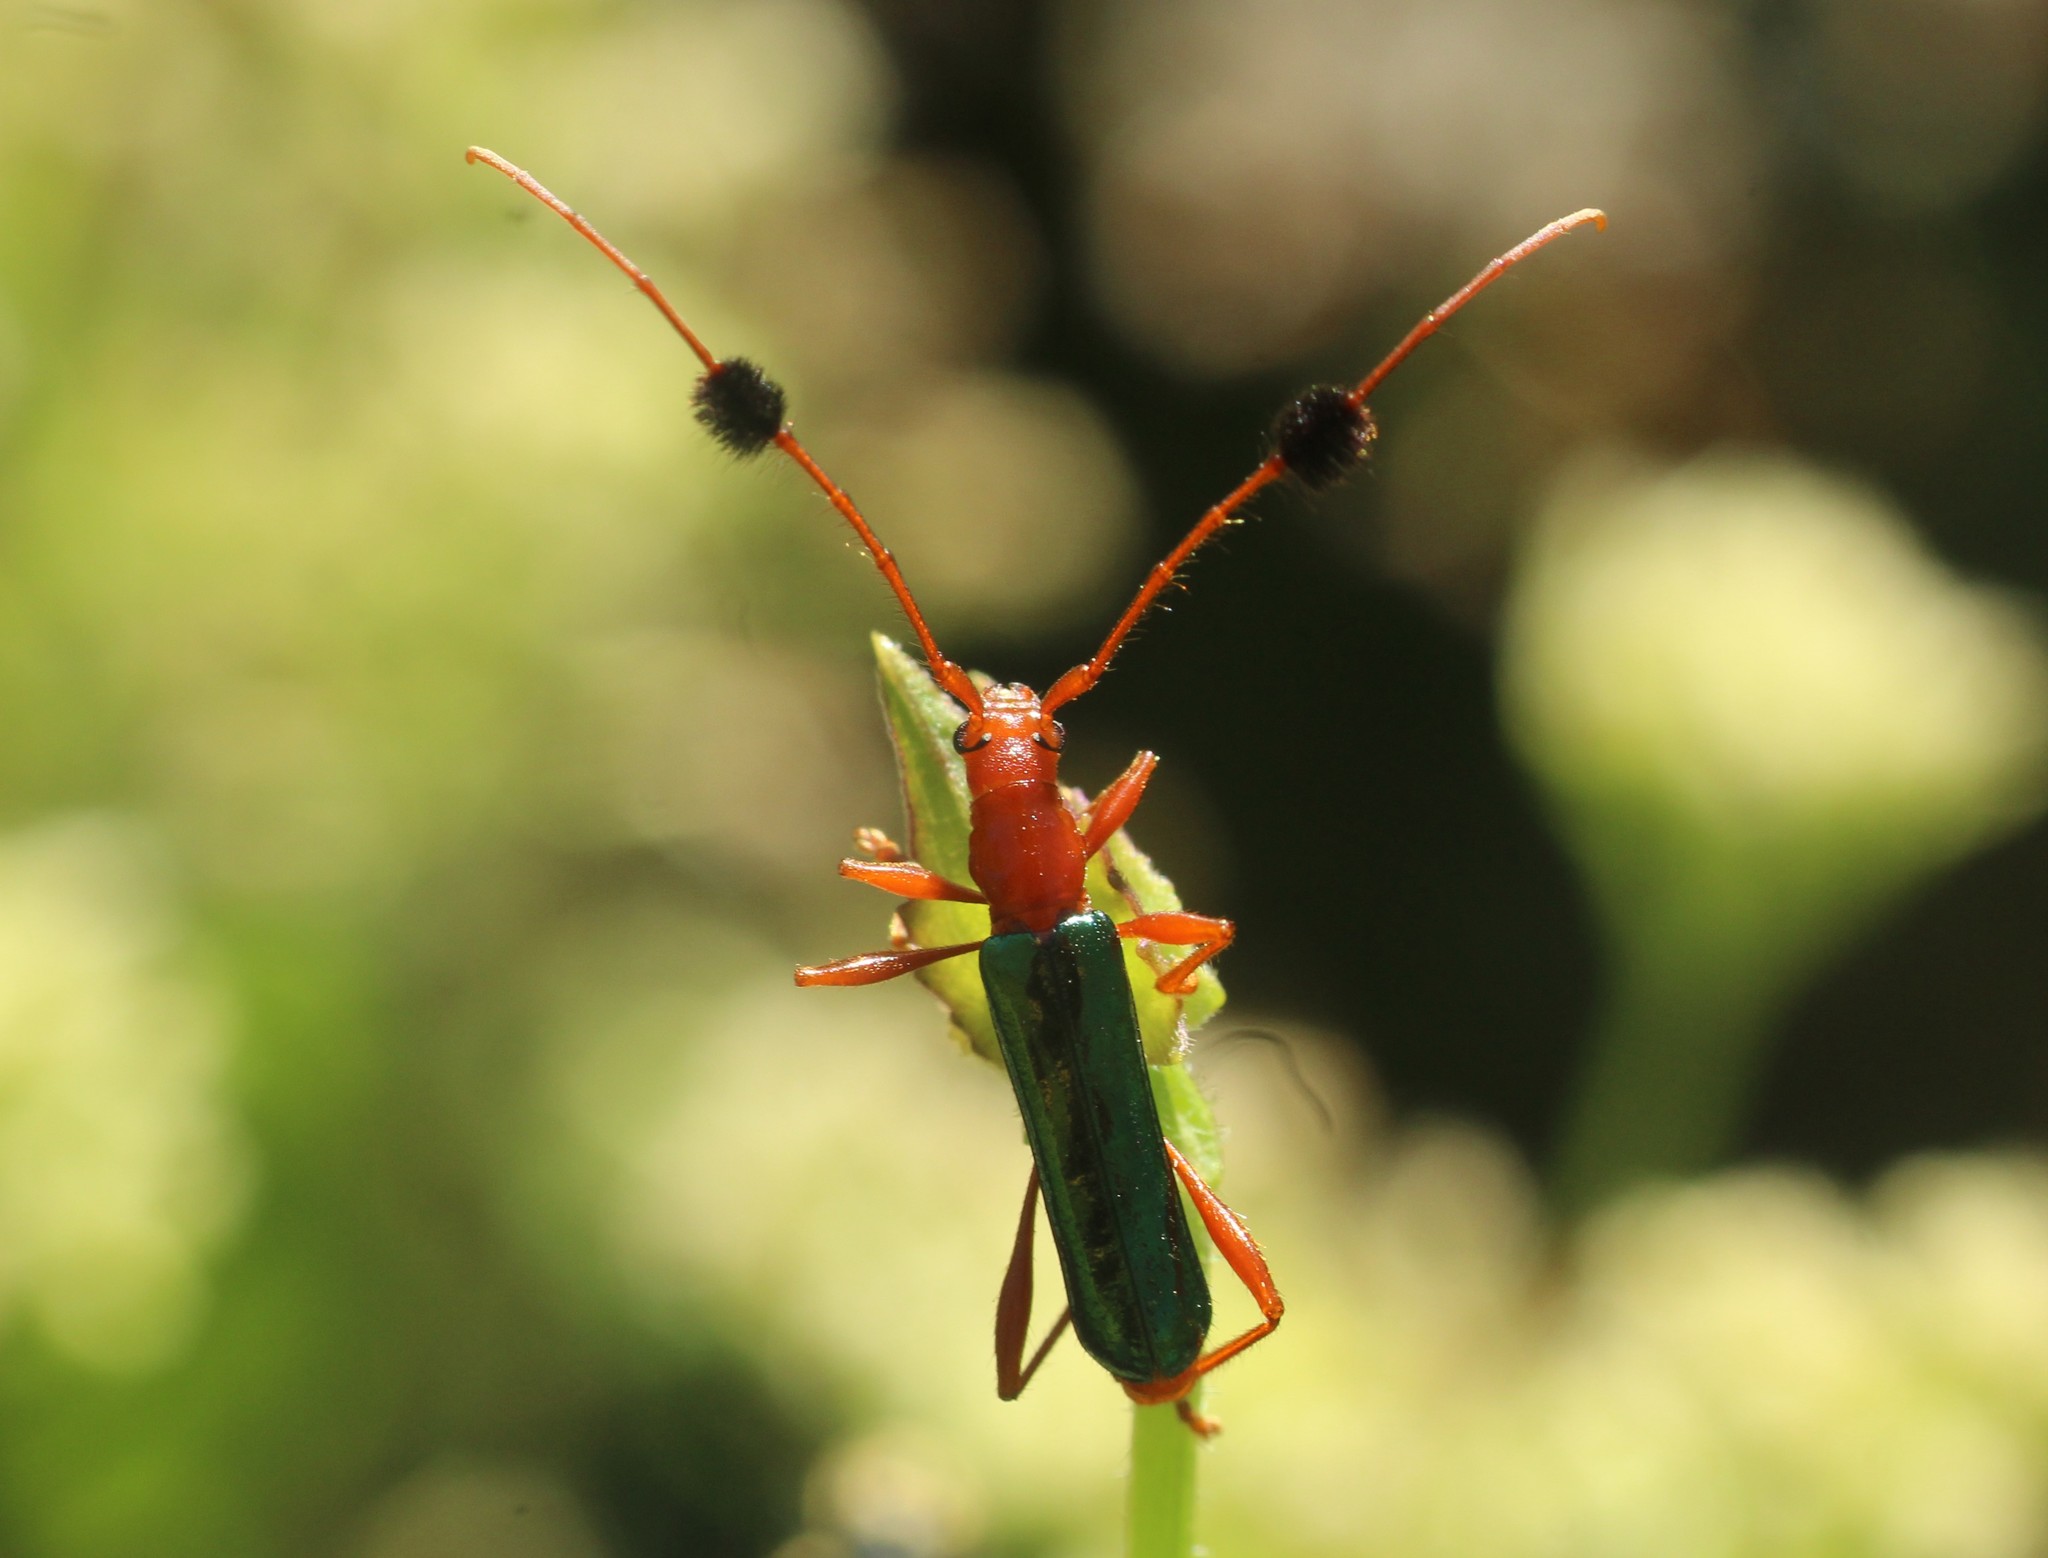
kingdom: Animalia
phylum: Arthropoda
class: Insecta
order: Coleoptera
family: Cerambycidae
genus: Paromoeocerus
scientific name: Paromoeocerus barbicornis
